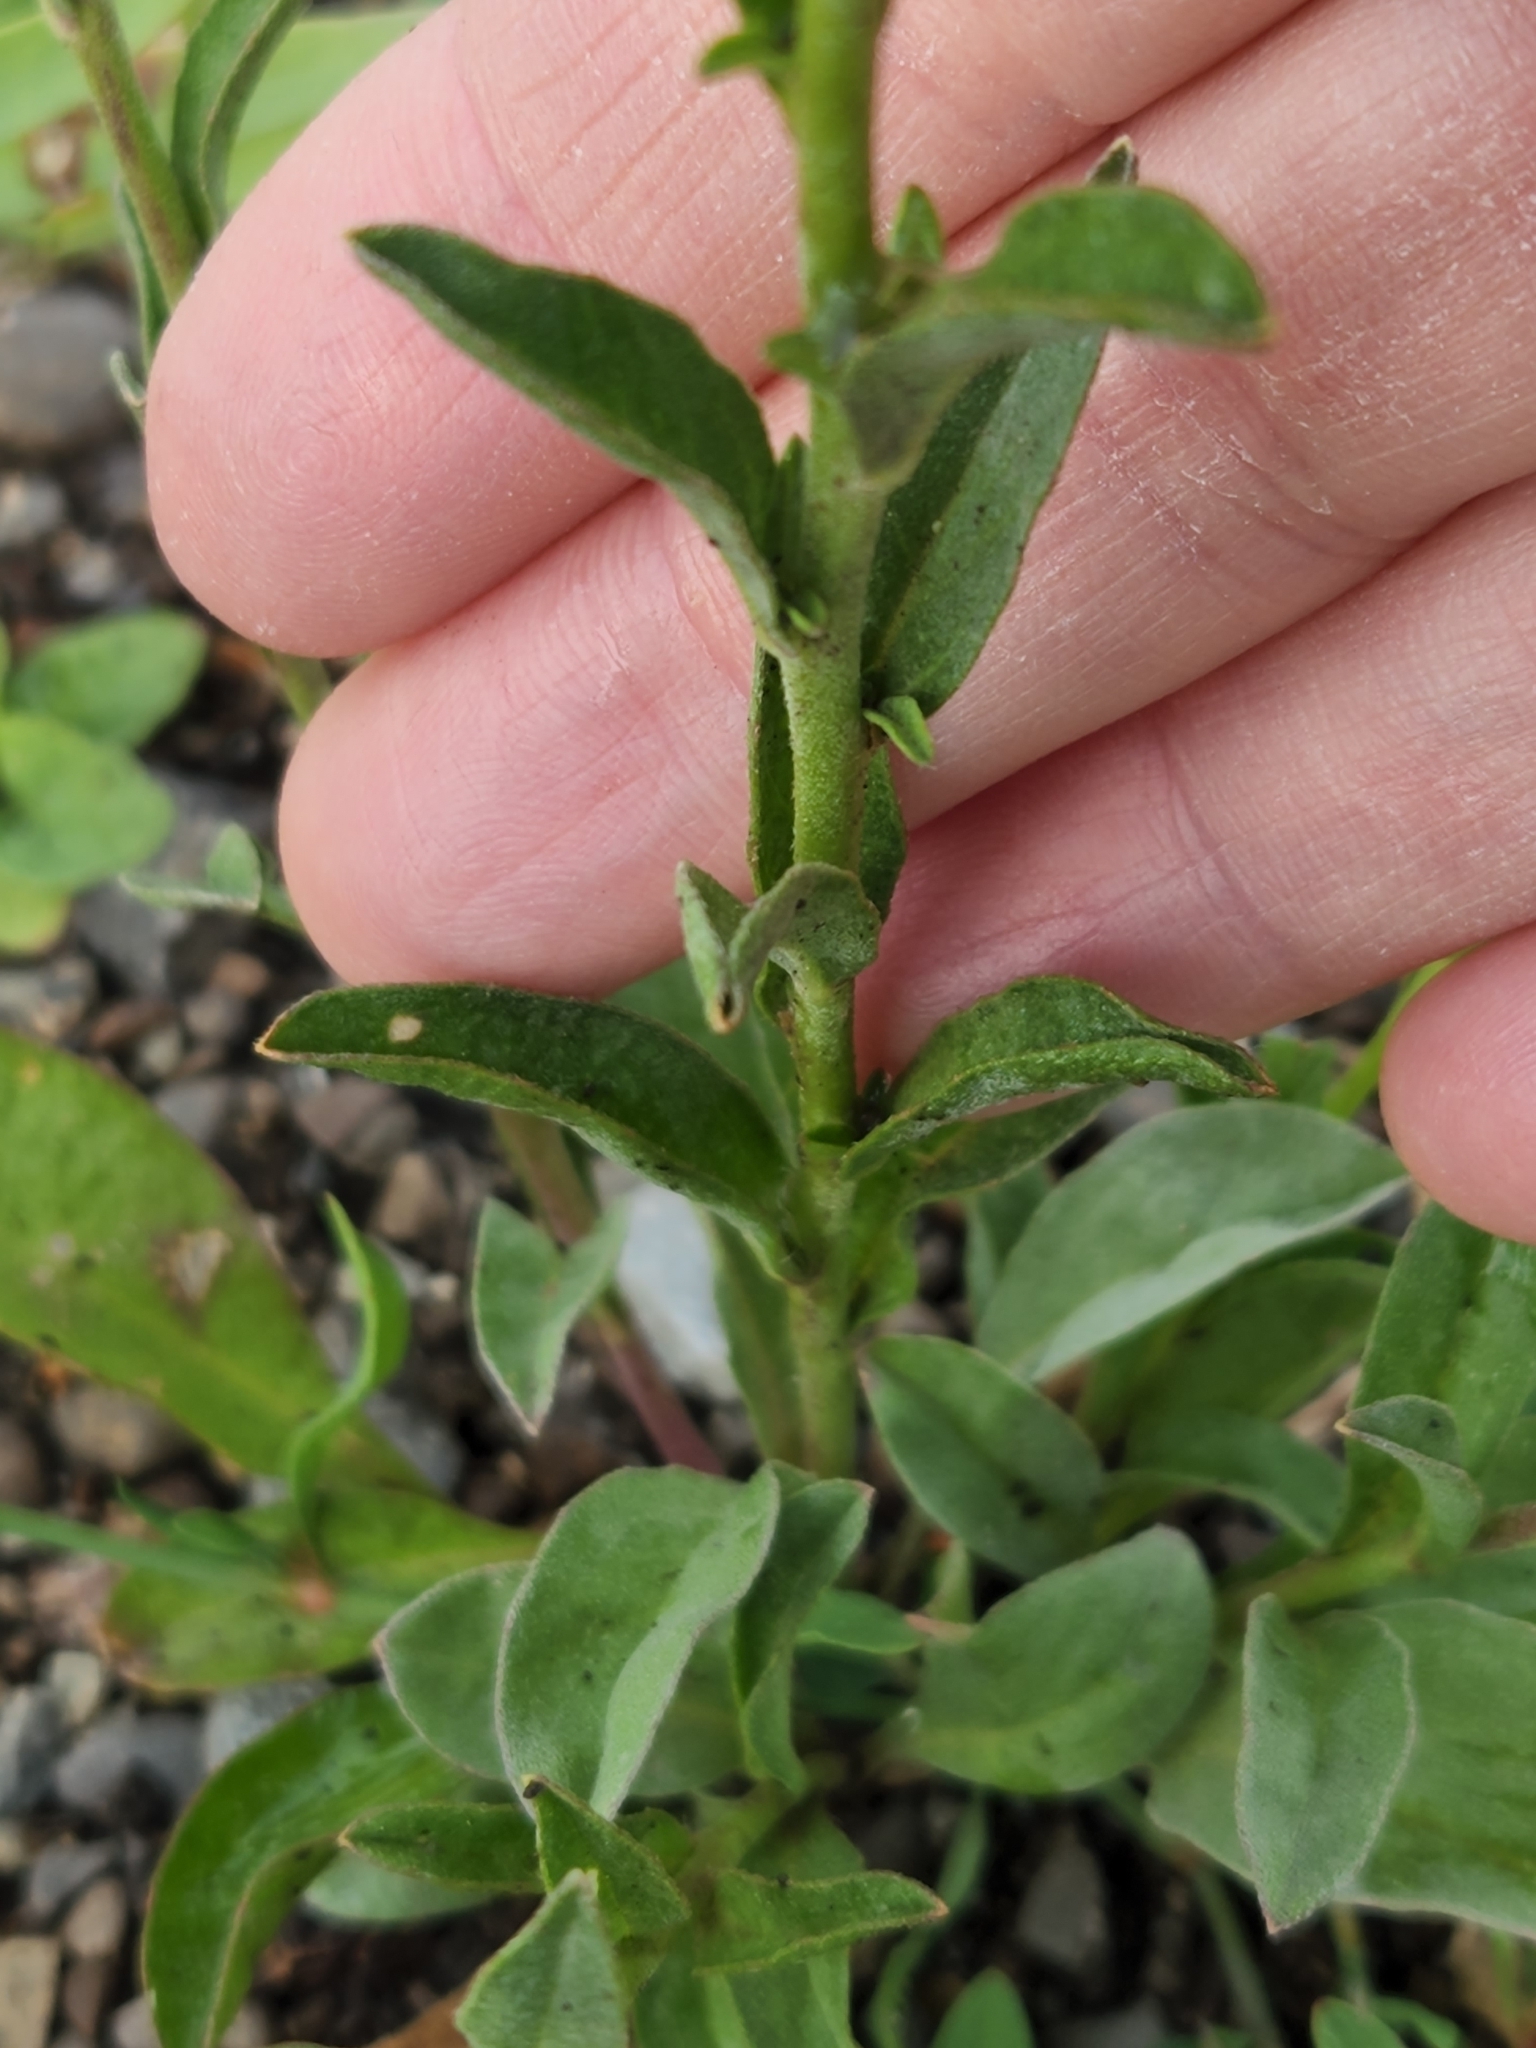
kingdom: Plantae
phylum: Tracheophyta
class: Magnoliopsida
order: Brassicales
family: Brassicaceae
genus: Berteroa
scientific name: Berteroa incana
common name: Hoary alison
